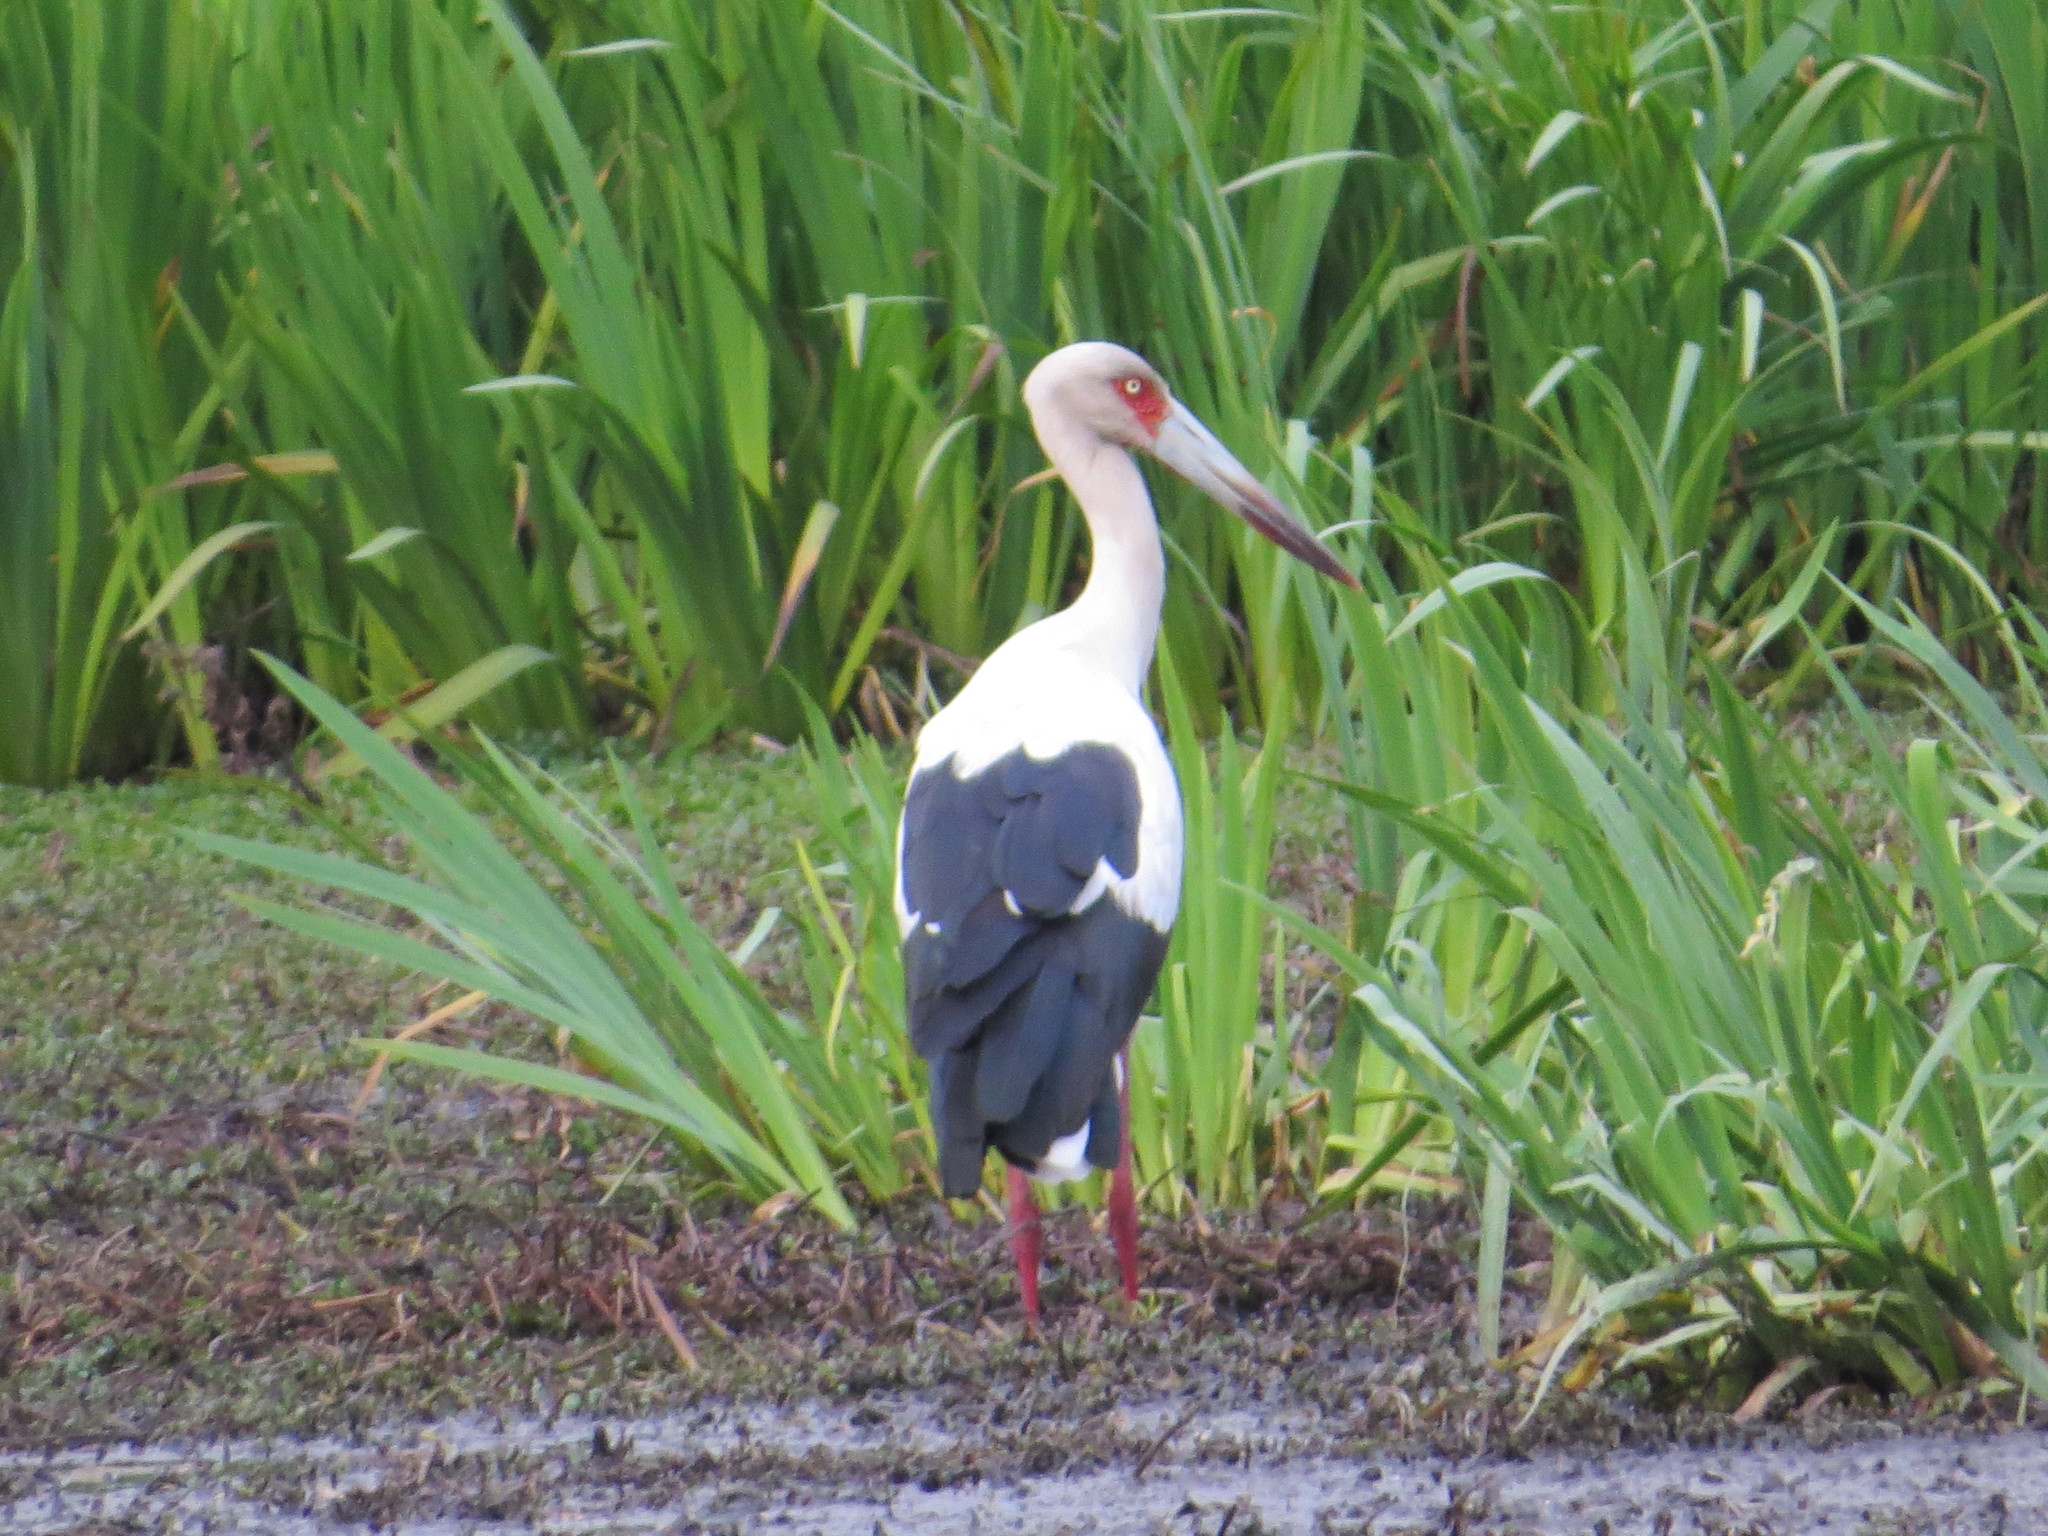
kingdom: Animalia
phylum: Chordata
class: Aves
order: Ciconiiformes
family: Ciconiidae
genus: Ciconia
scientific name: Ciconia maguari
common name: Maguari stork
